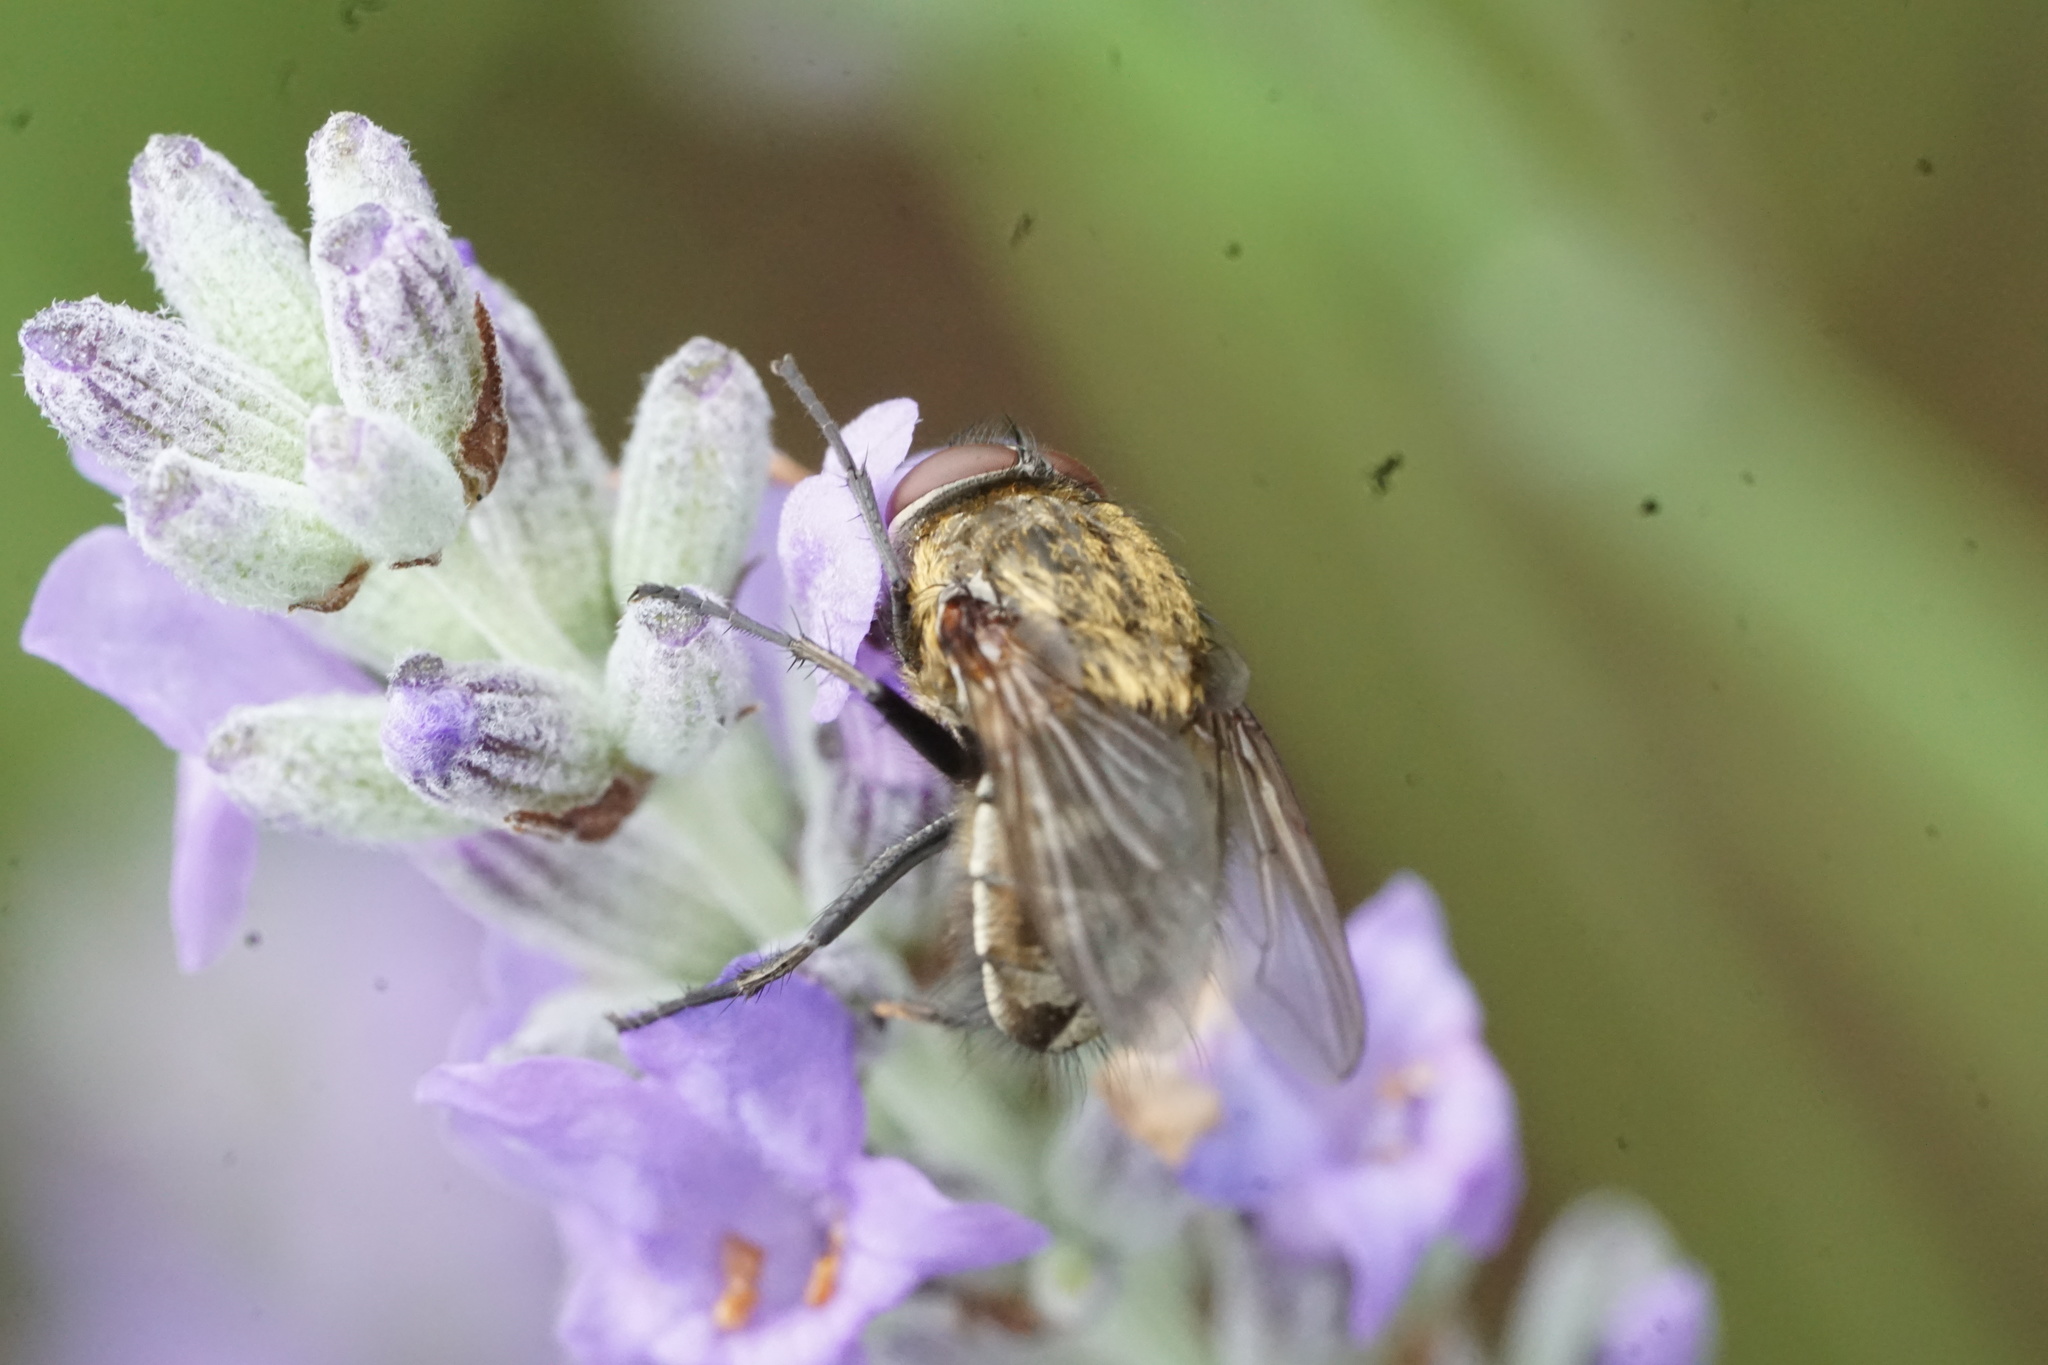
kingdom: Animalia
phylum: Arthropoda
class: Insecta
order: Diptera
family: Polleniidae
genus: Pollenia
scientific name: Pollenia
